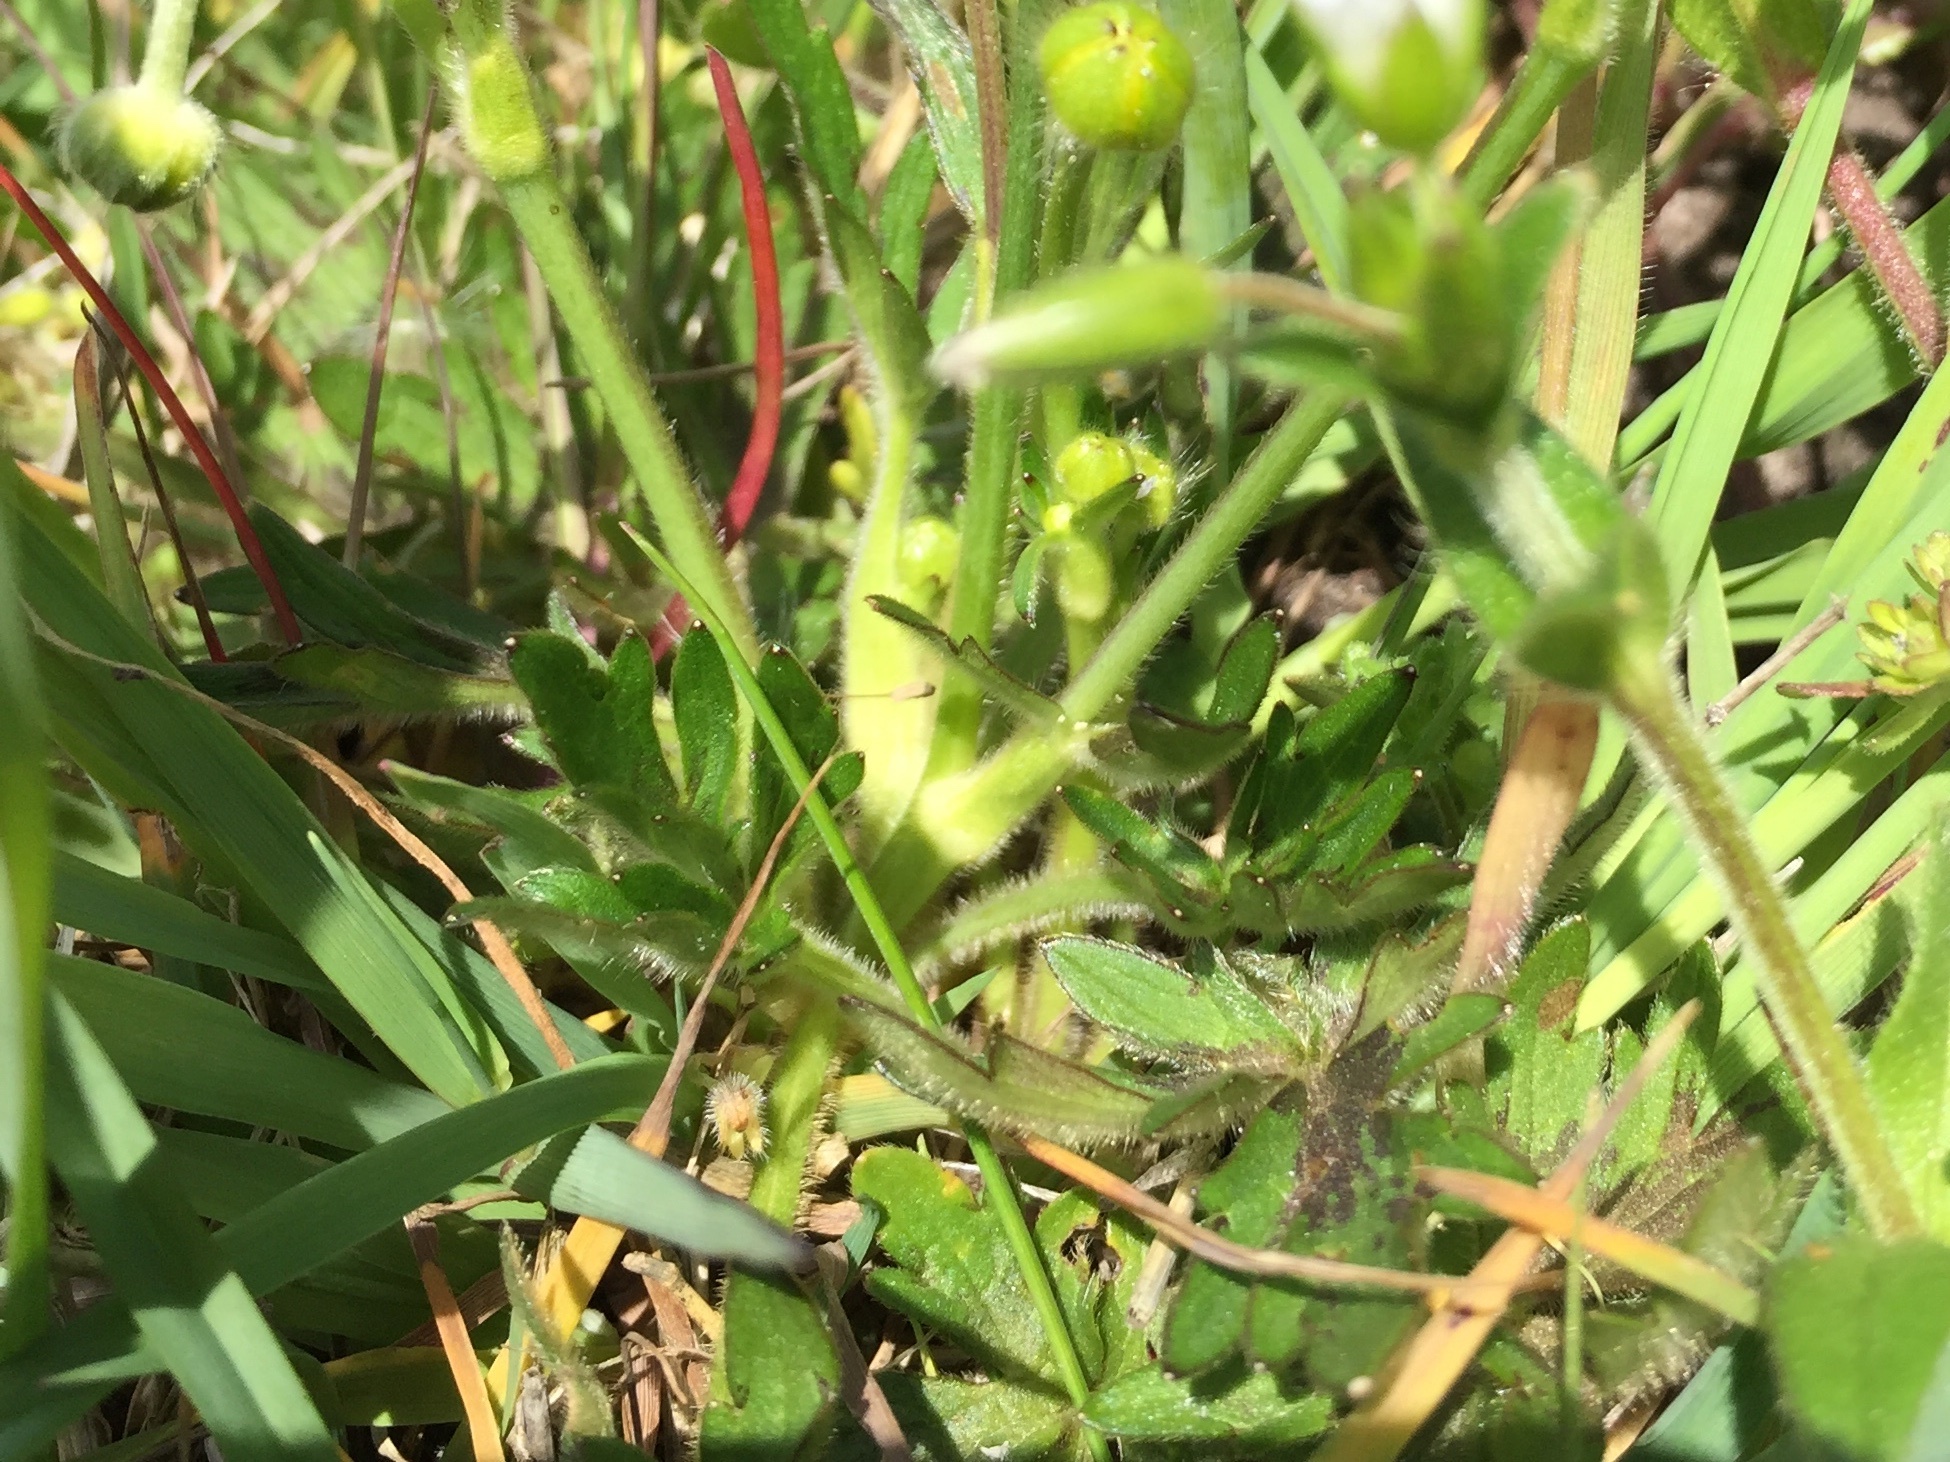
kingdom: Plantae
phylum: Tracheophyta
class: Magnoliopsida
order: Ranunculales
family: Ranunculaceae
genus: Ranunculus
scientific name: Ranunculus bulbosus
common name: Bulbous buttercup
